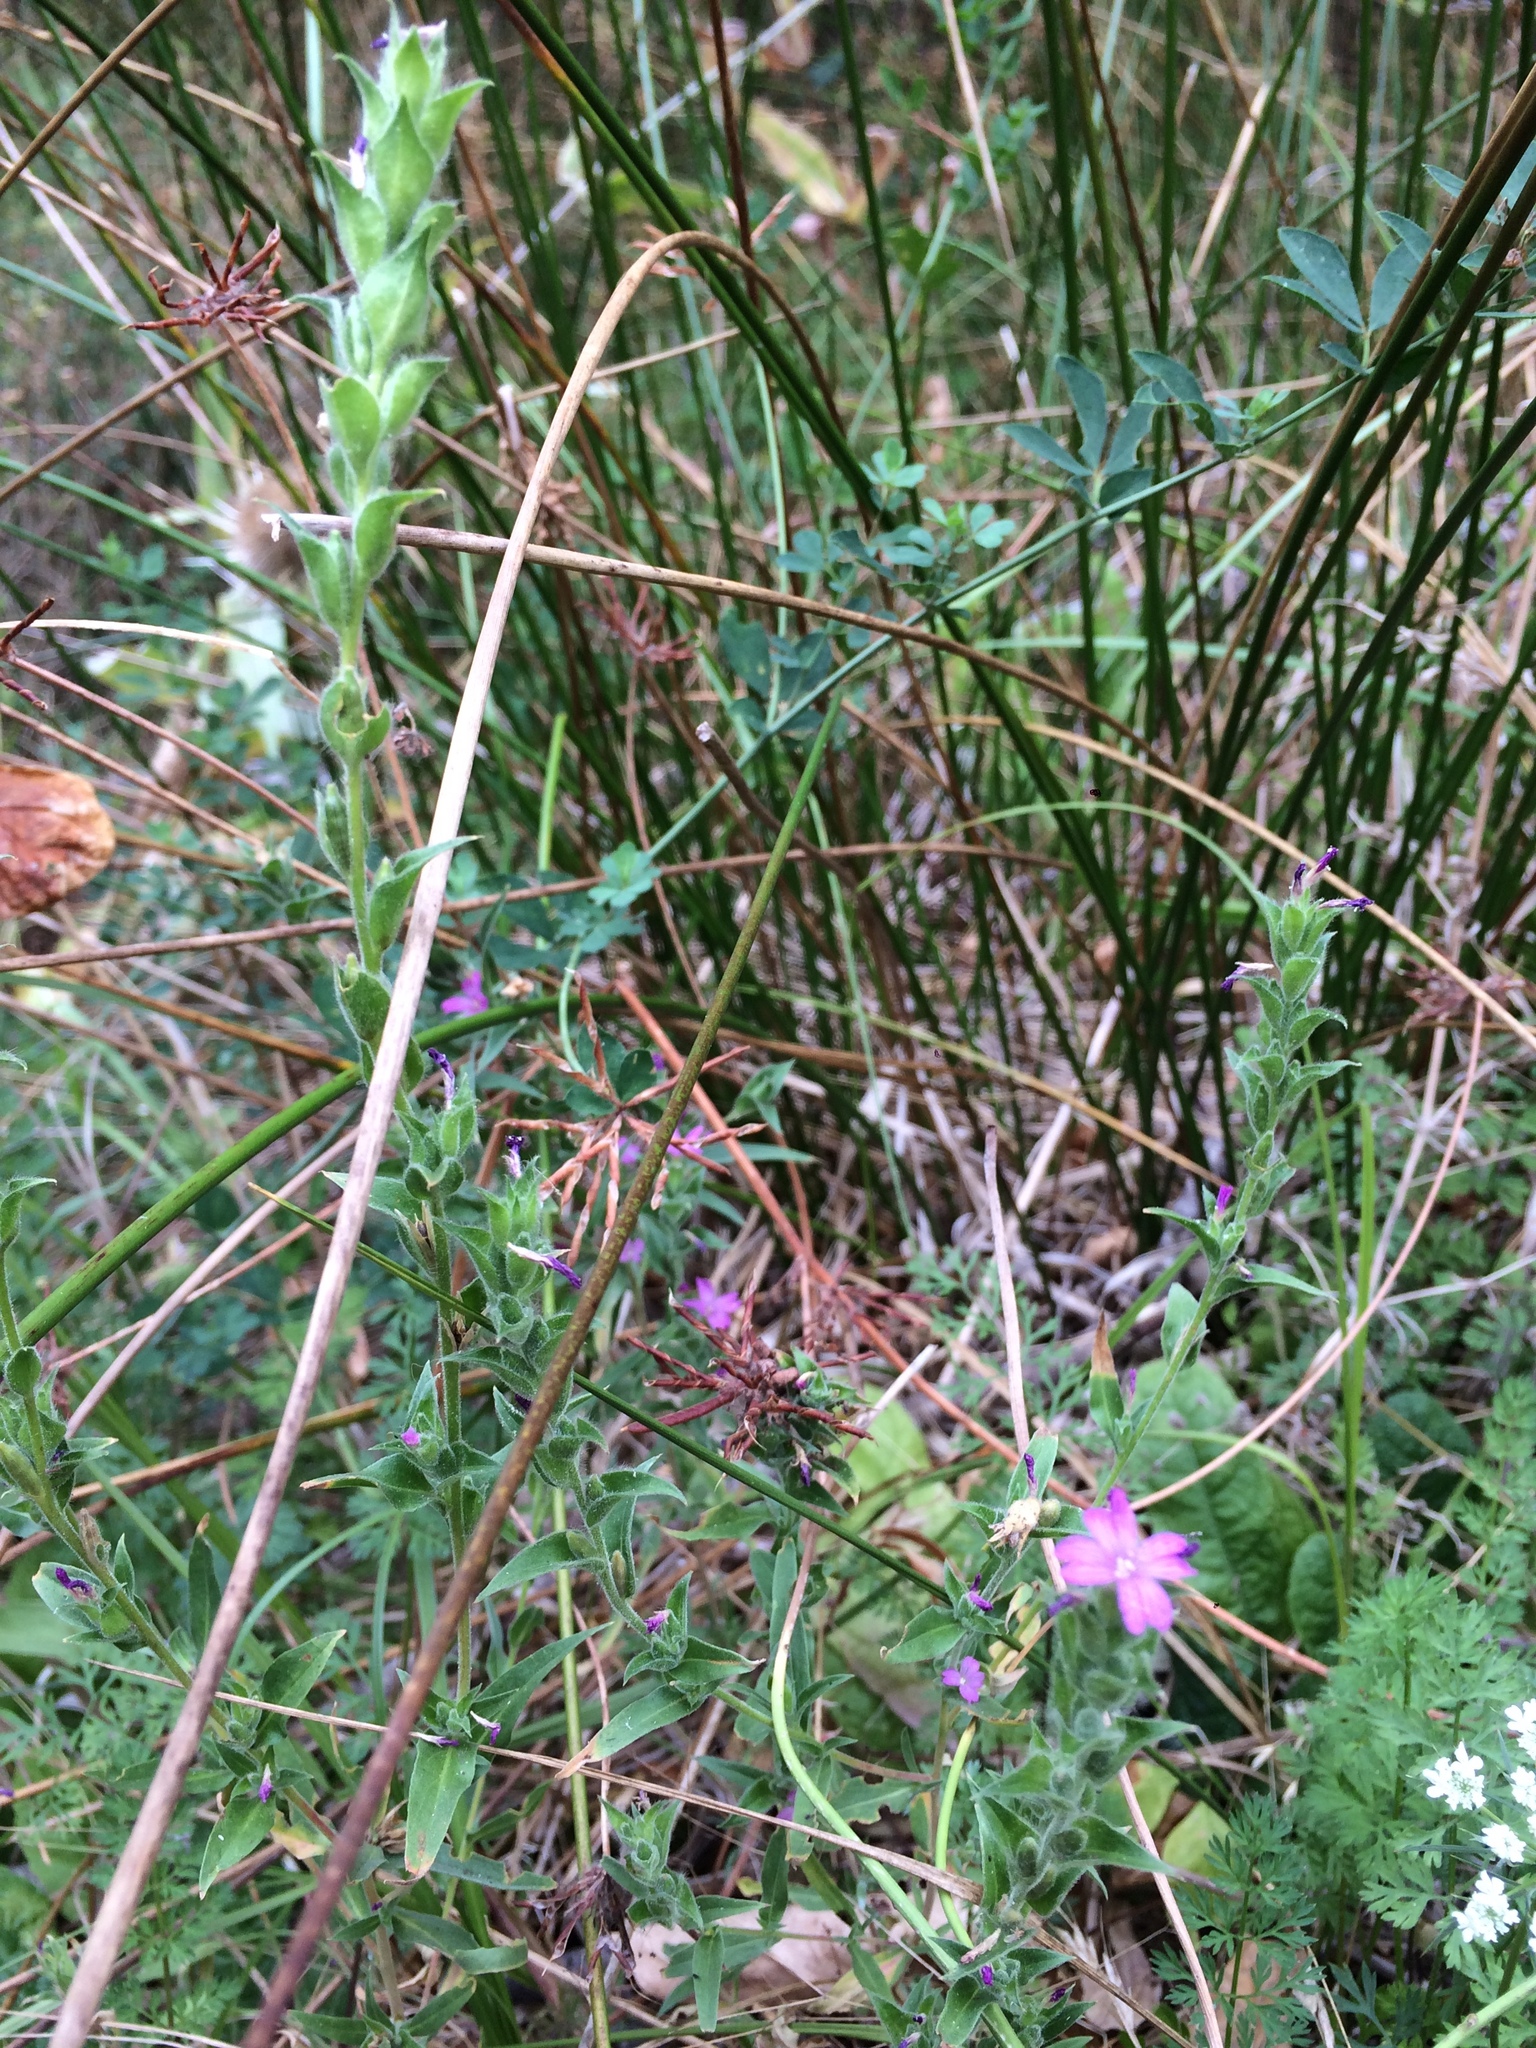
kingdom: Plantae
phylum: Tracheophyta
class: Magnoliopsida
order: Myrtales
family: Onagraceae
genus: Epilobium
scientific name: Epilobium densiflorum
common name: Dense spike-primrose
